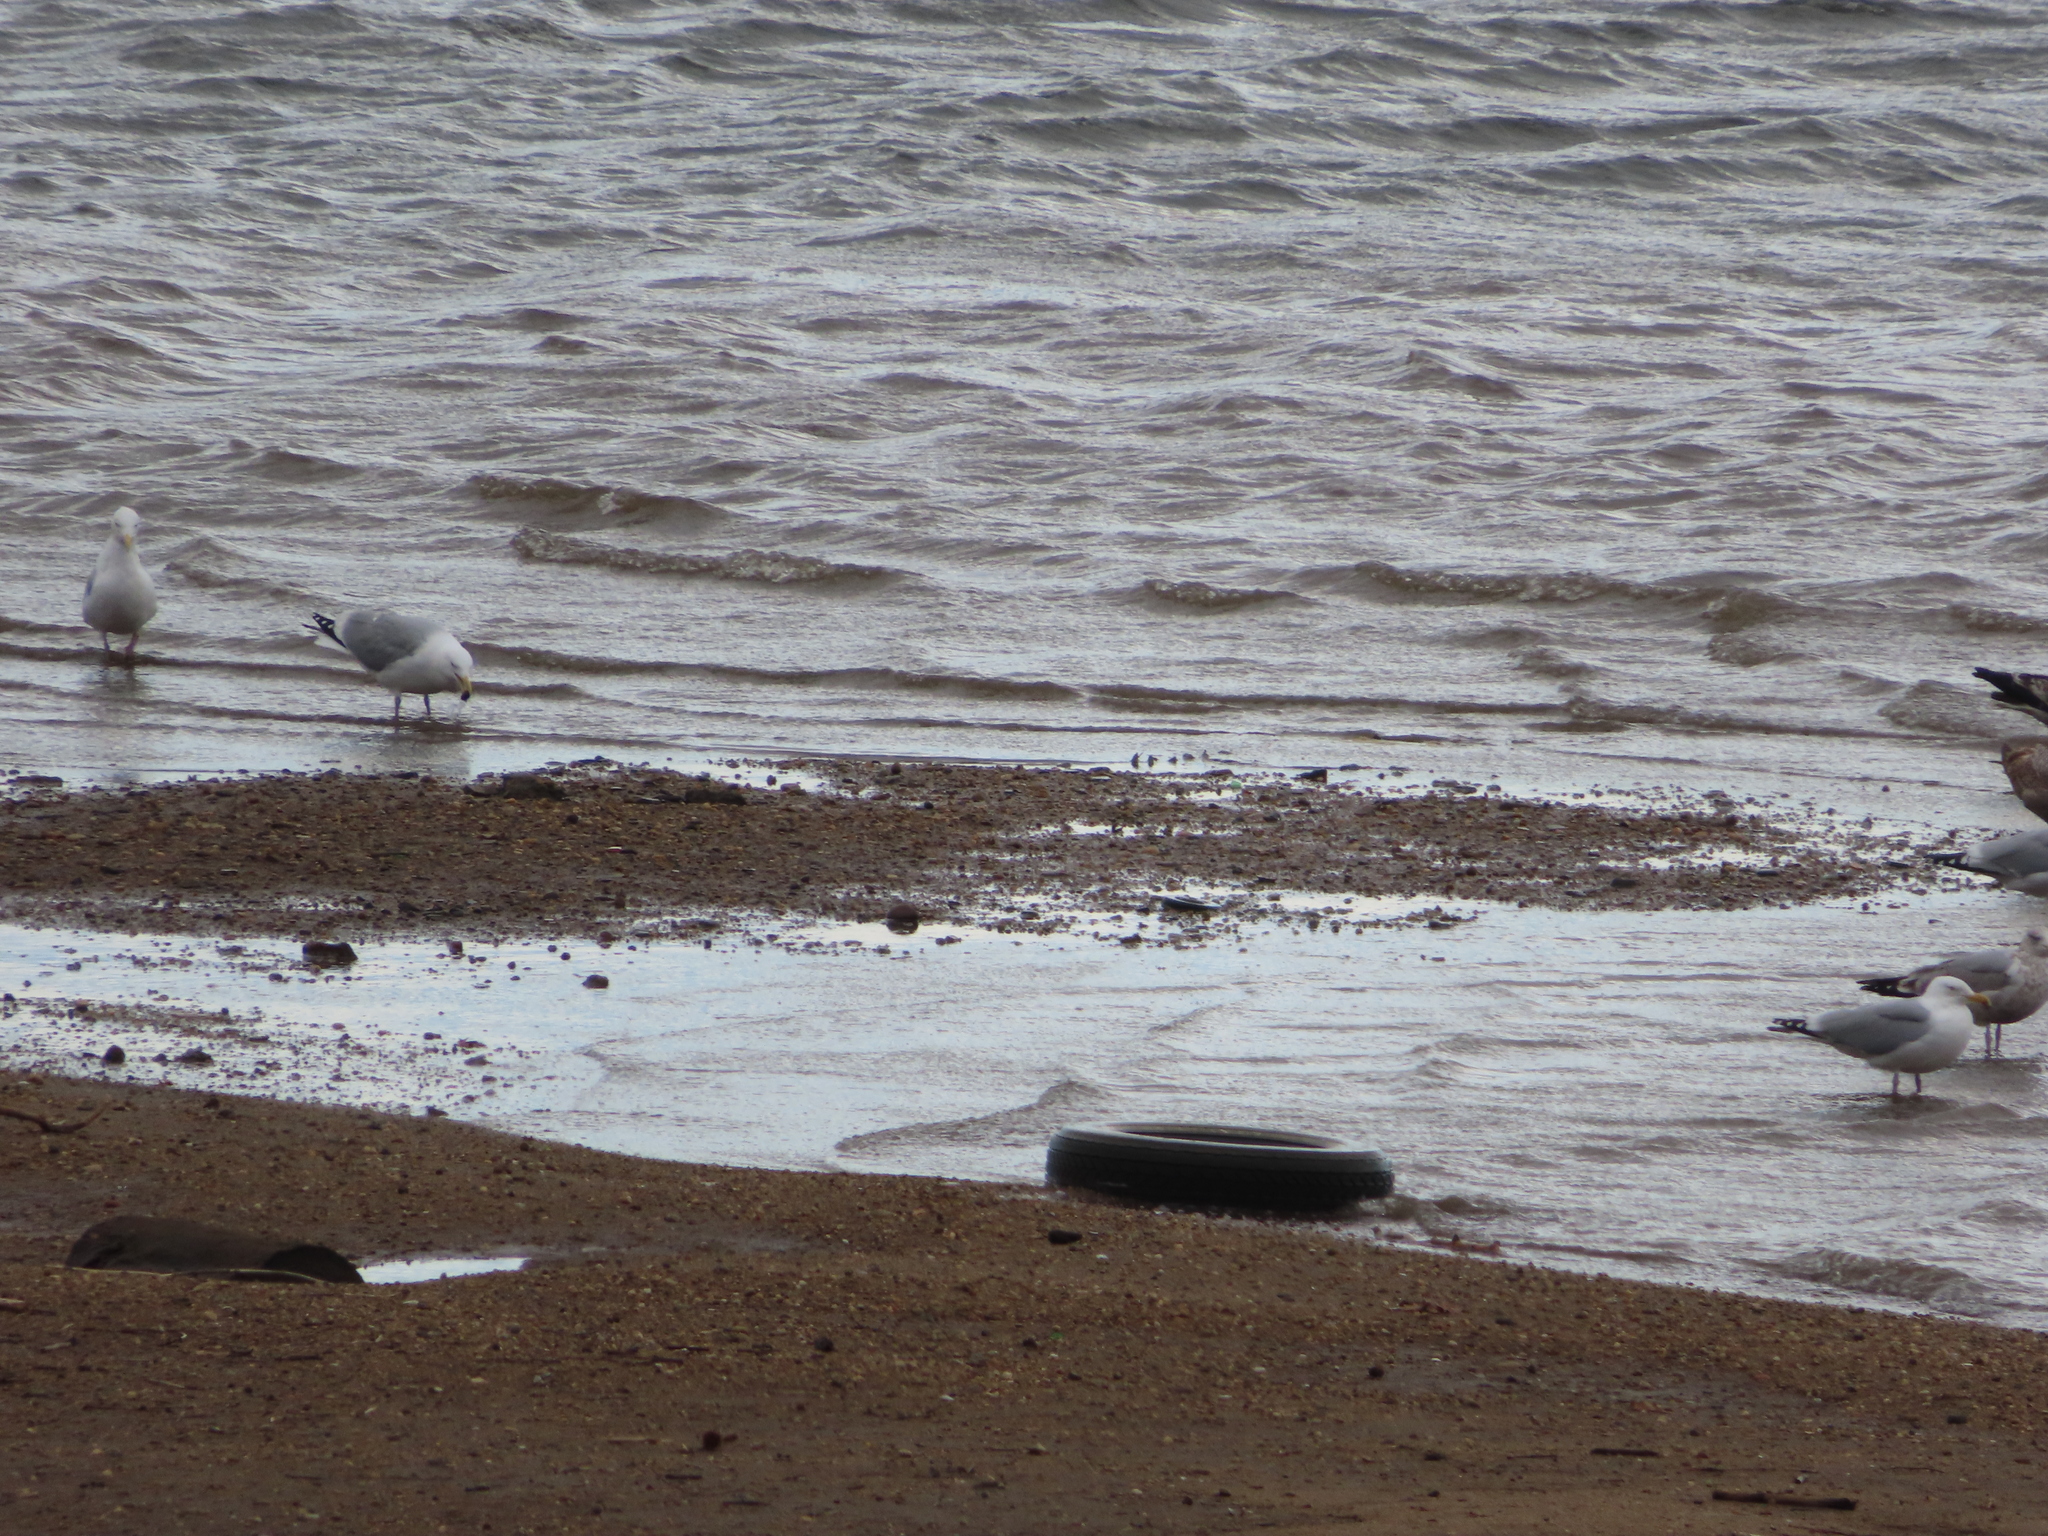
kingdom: Animalia
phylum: Chordata
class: Aves
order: Charadriiformes
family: Laridae
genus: Larus
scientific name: Larus delawarensis
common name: Ring-billed gull
